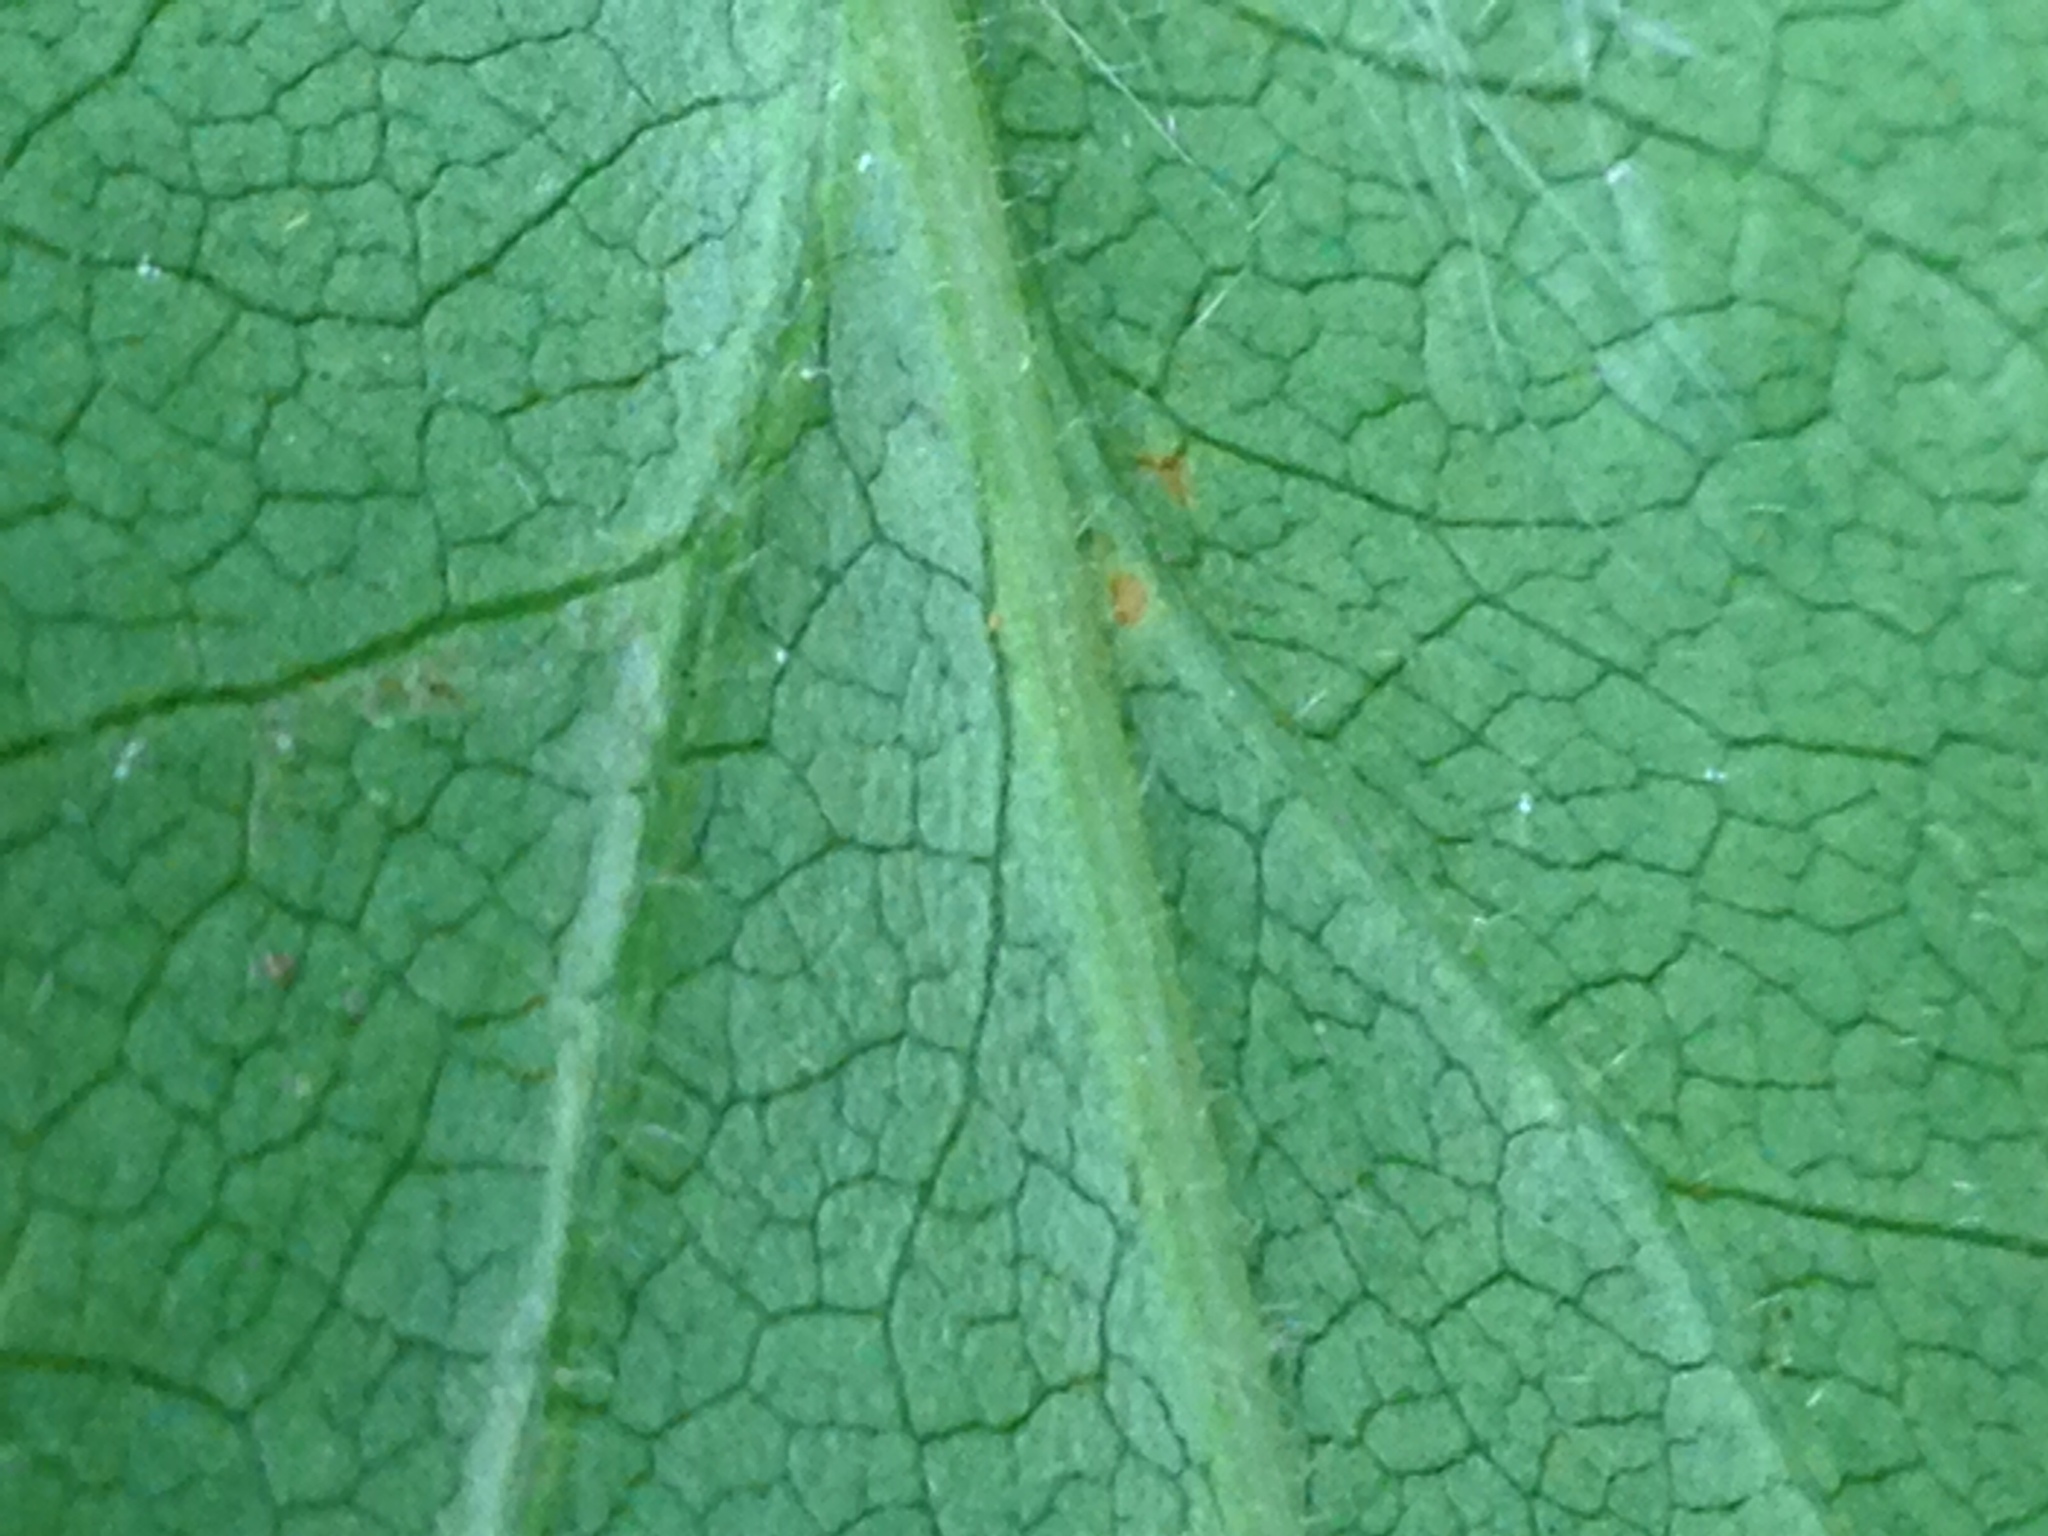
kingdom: Plantae
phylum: Tracheophyta
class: Magnoliopsida
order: Asterales
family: Asteraceae
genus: Symphyotrichum
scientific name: Symphyotrichum cordifolium
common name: Beeweed
